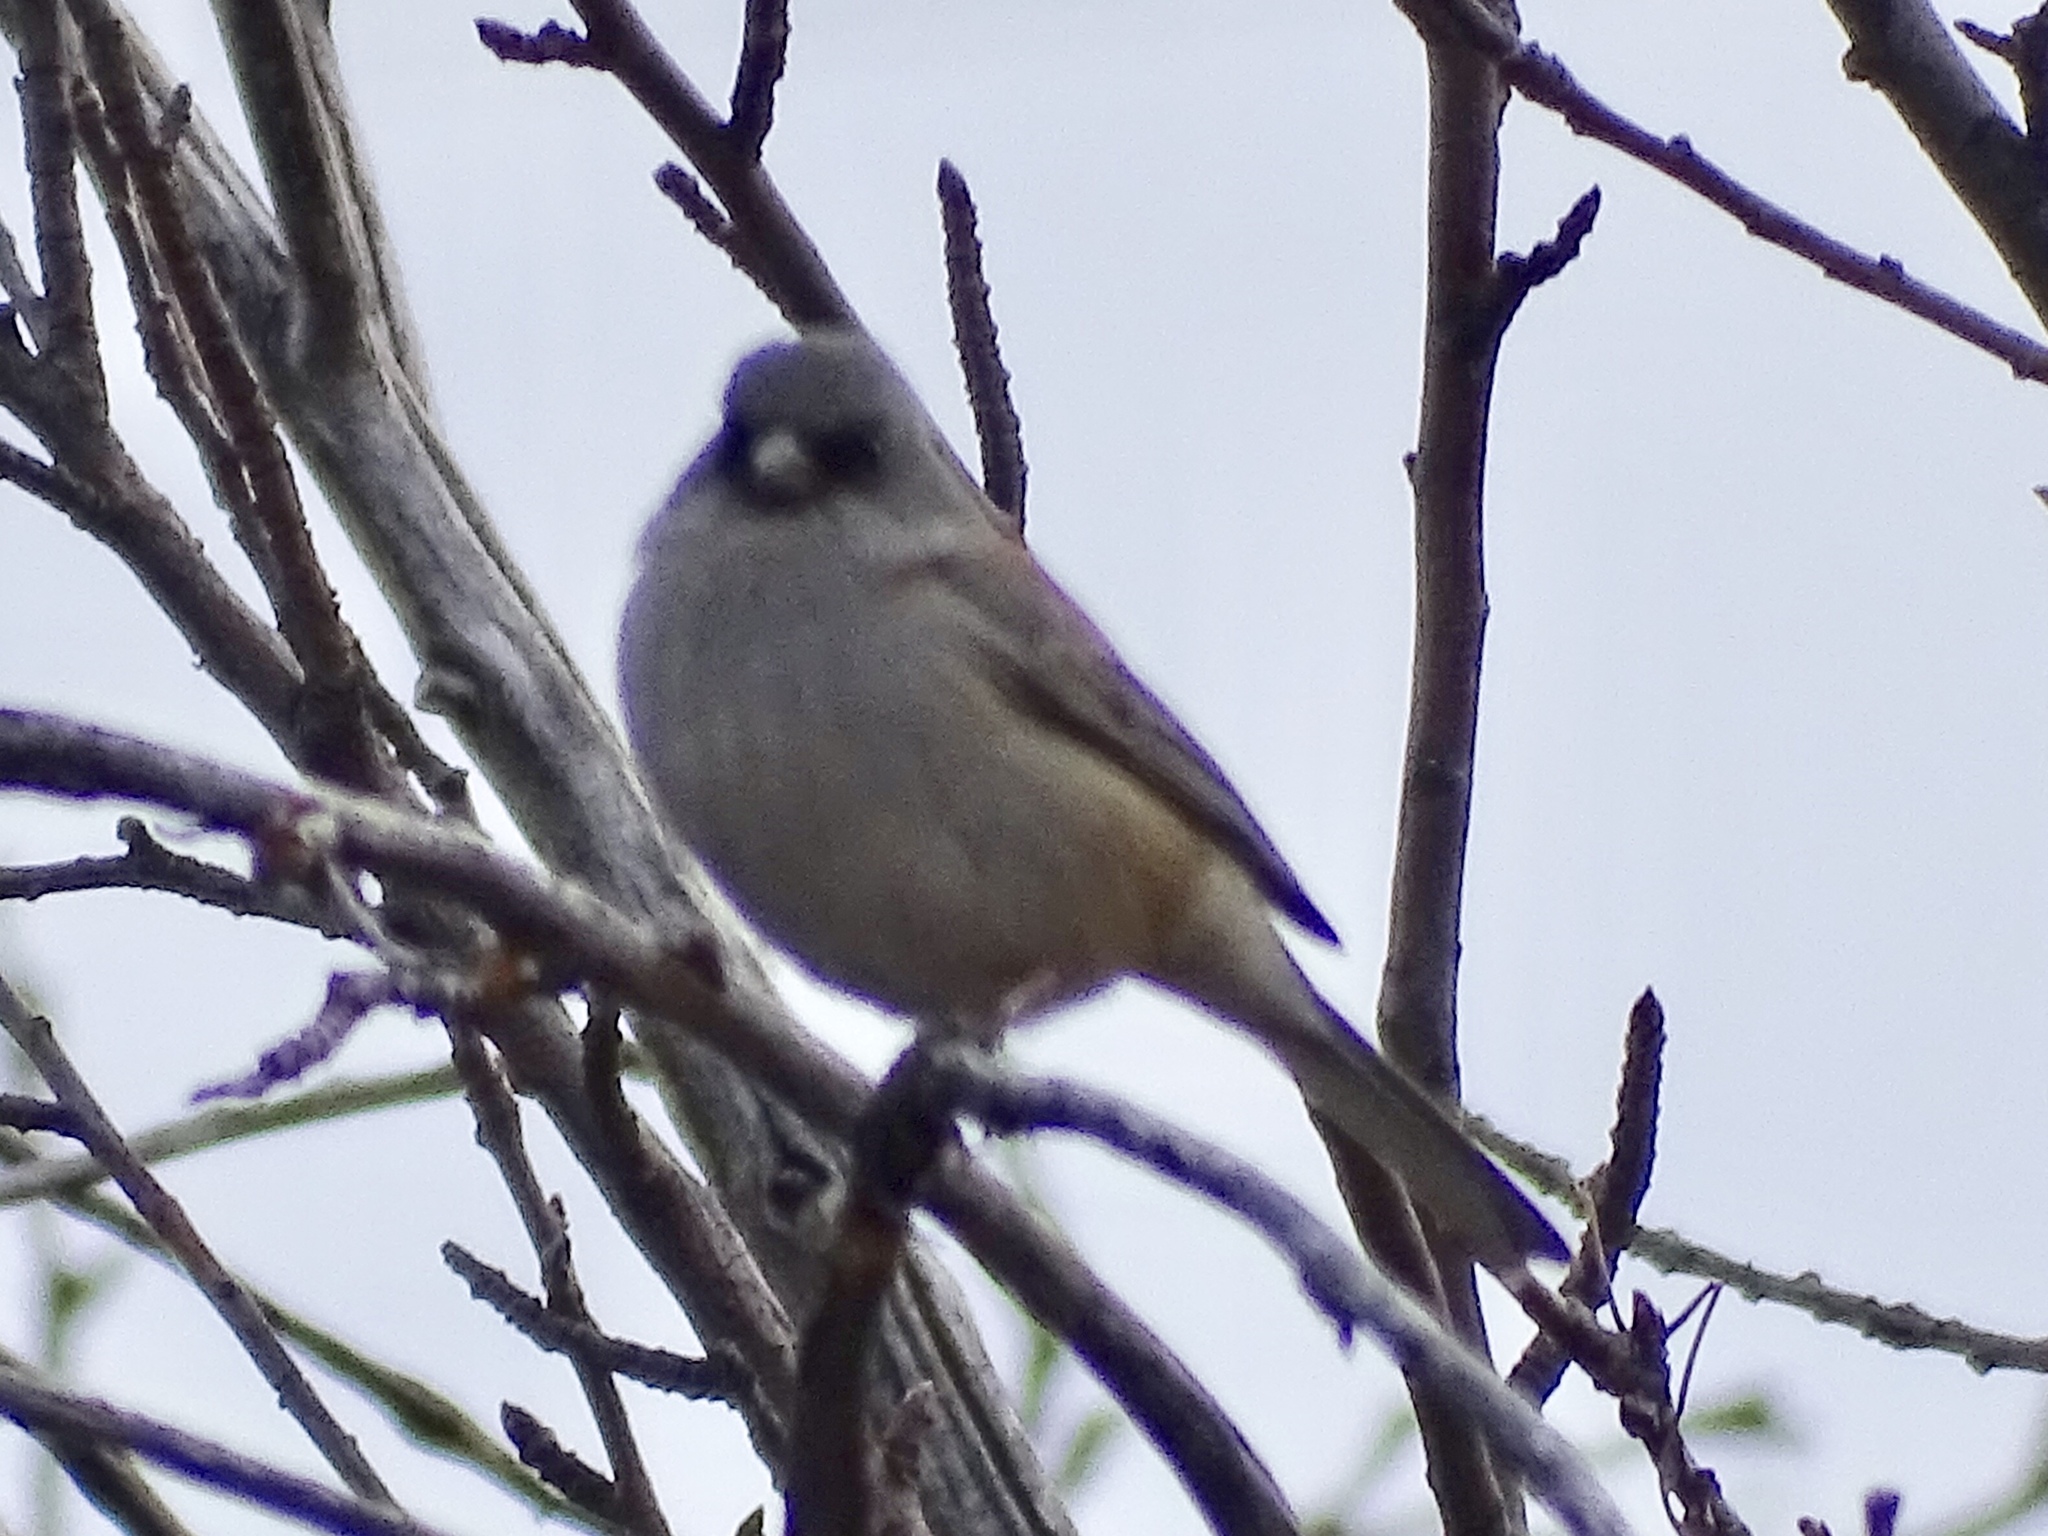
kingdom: Animalia
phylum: Chordata
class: Aves
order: Passeriformes
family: Passerellidae
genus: Junco
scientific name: Junco hyemalis
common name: Dark-eyed junco
